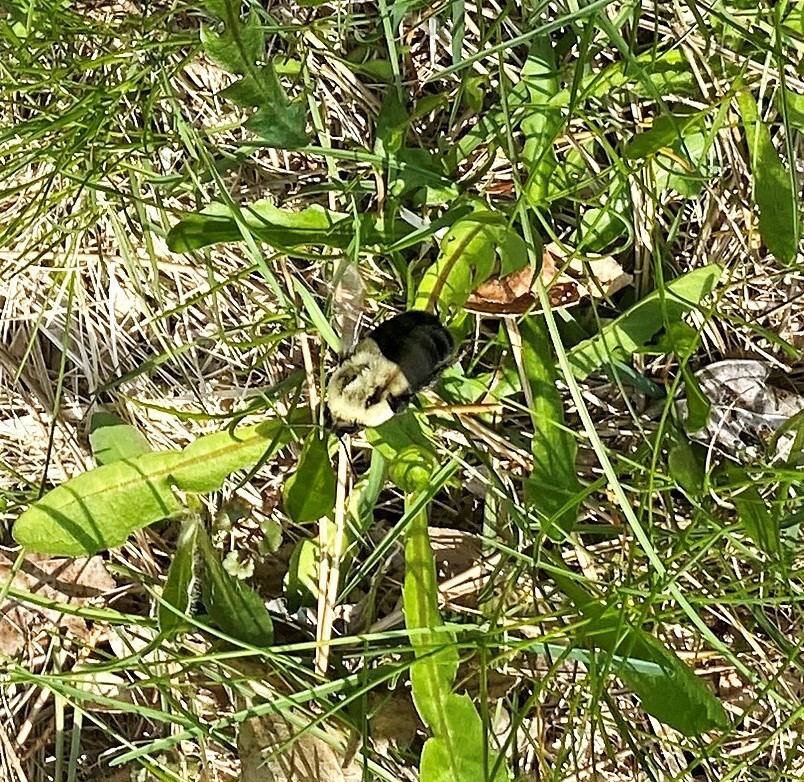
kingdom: Animalia
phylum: Arthropoda
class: Insecta
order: Hymenoptera
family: Apidae
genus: Bombus
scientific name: Bombus impatiens
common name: Common eastern bumble bee
